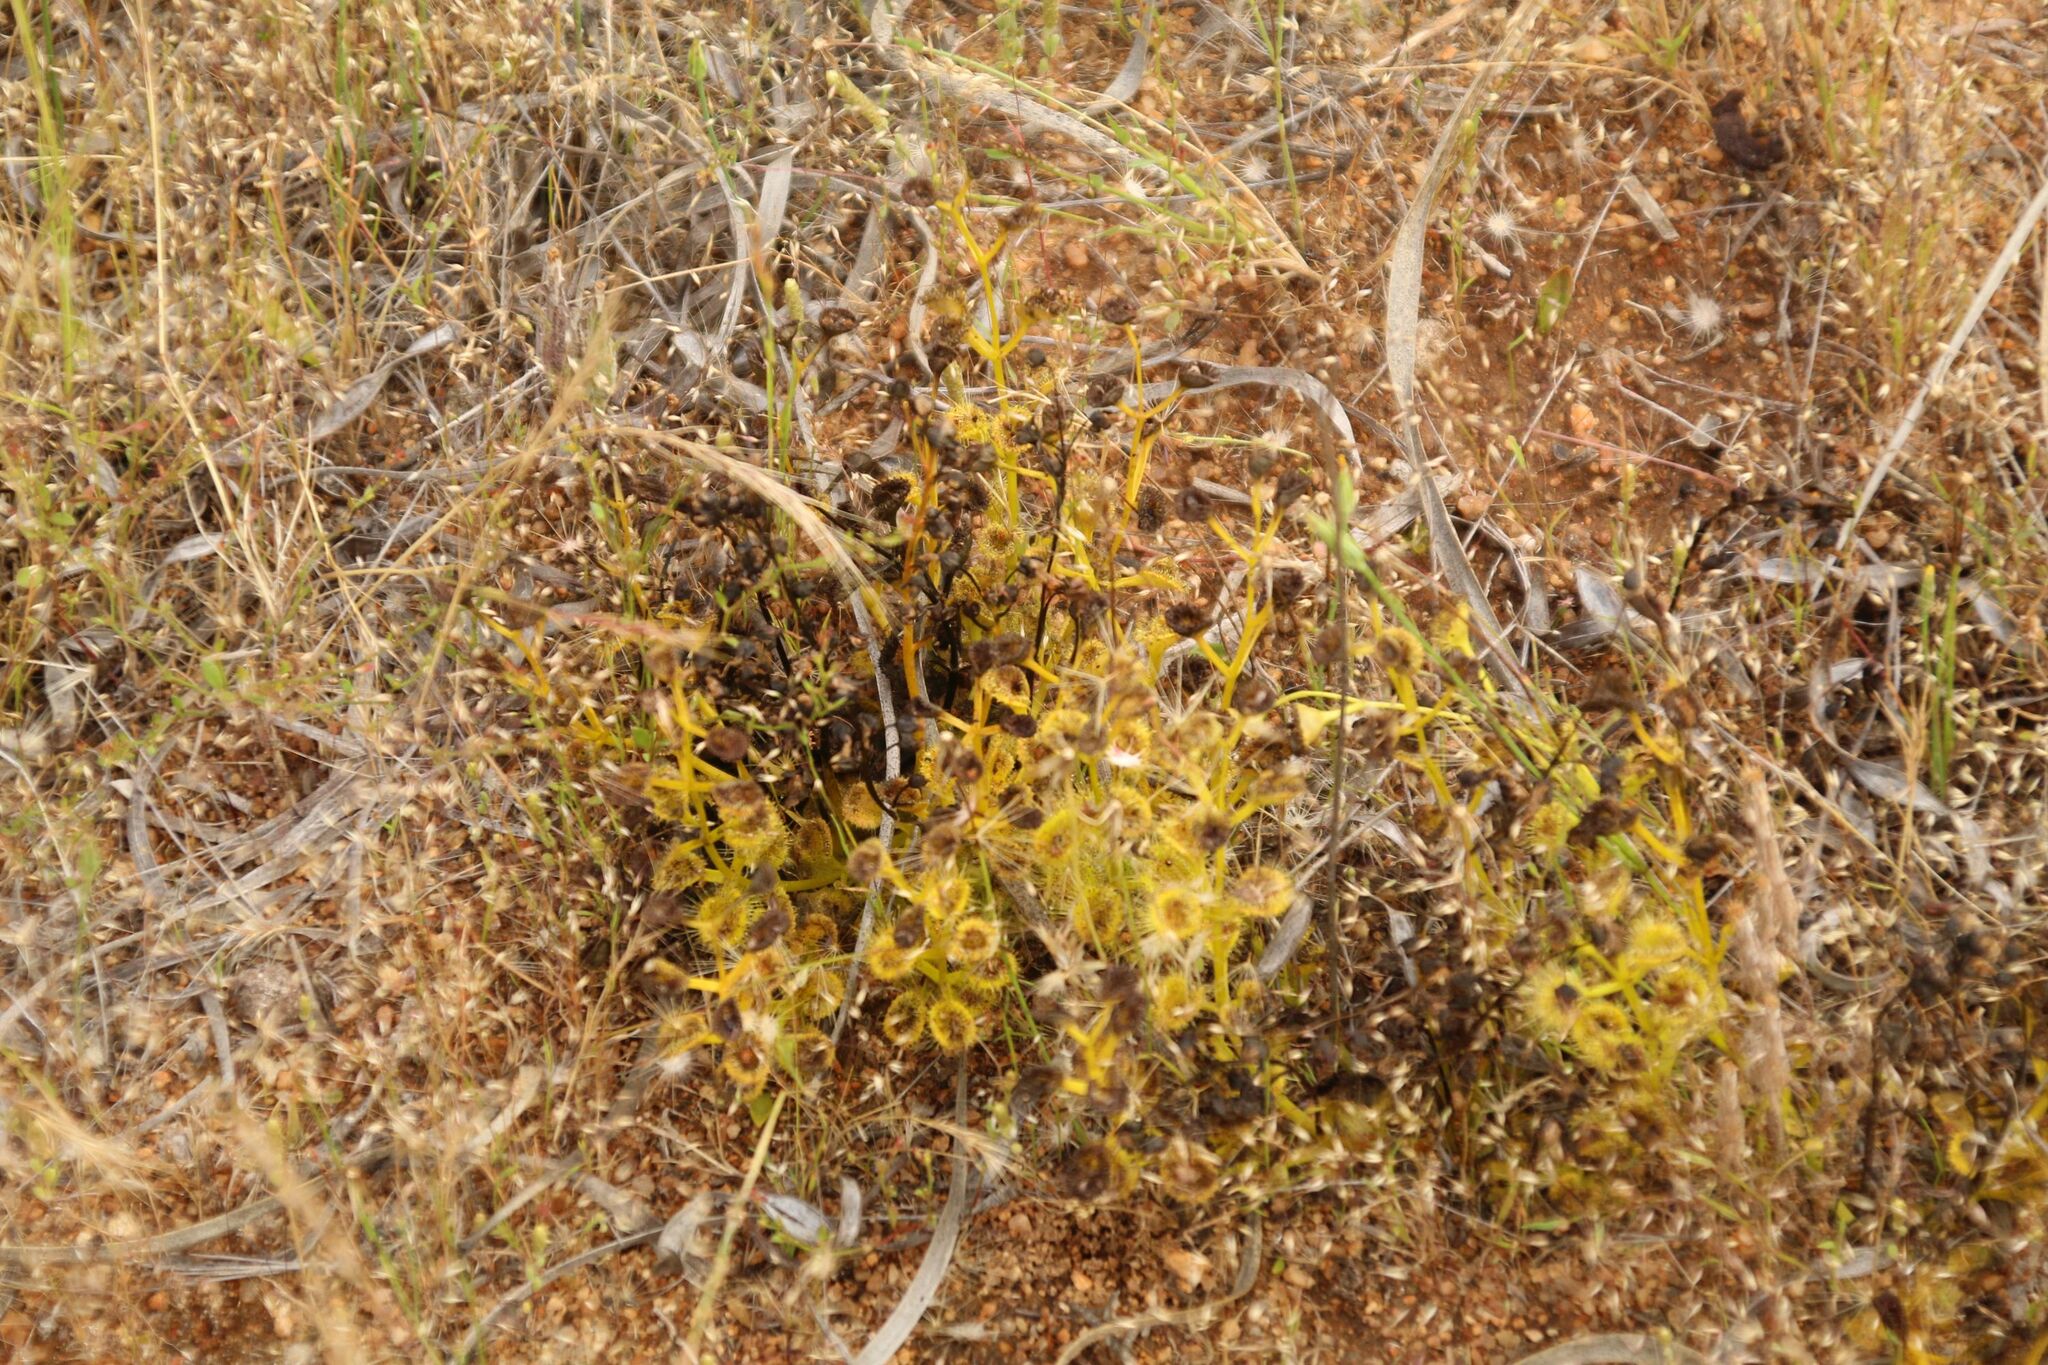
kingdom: Plantae
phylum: Tracheophyta
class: Magnoliopsida
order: Caryophyllales
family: Droseraceae
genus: Drosera
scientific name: Drosera rupicola
